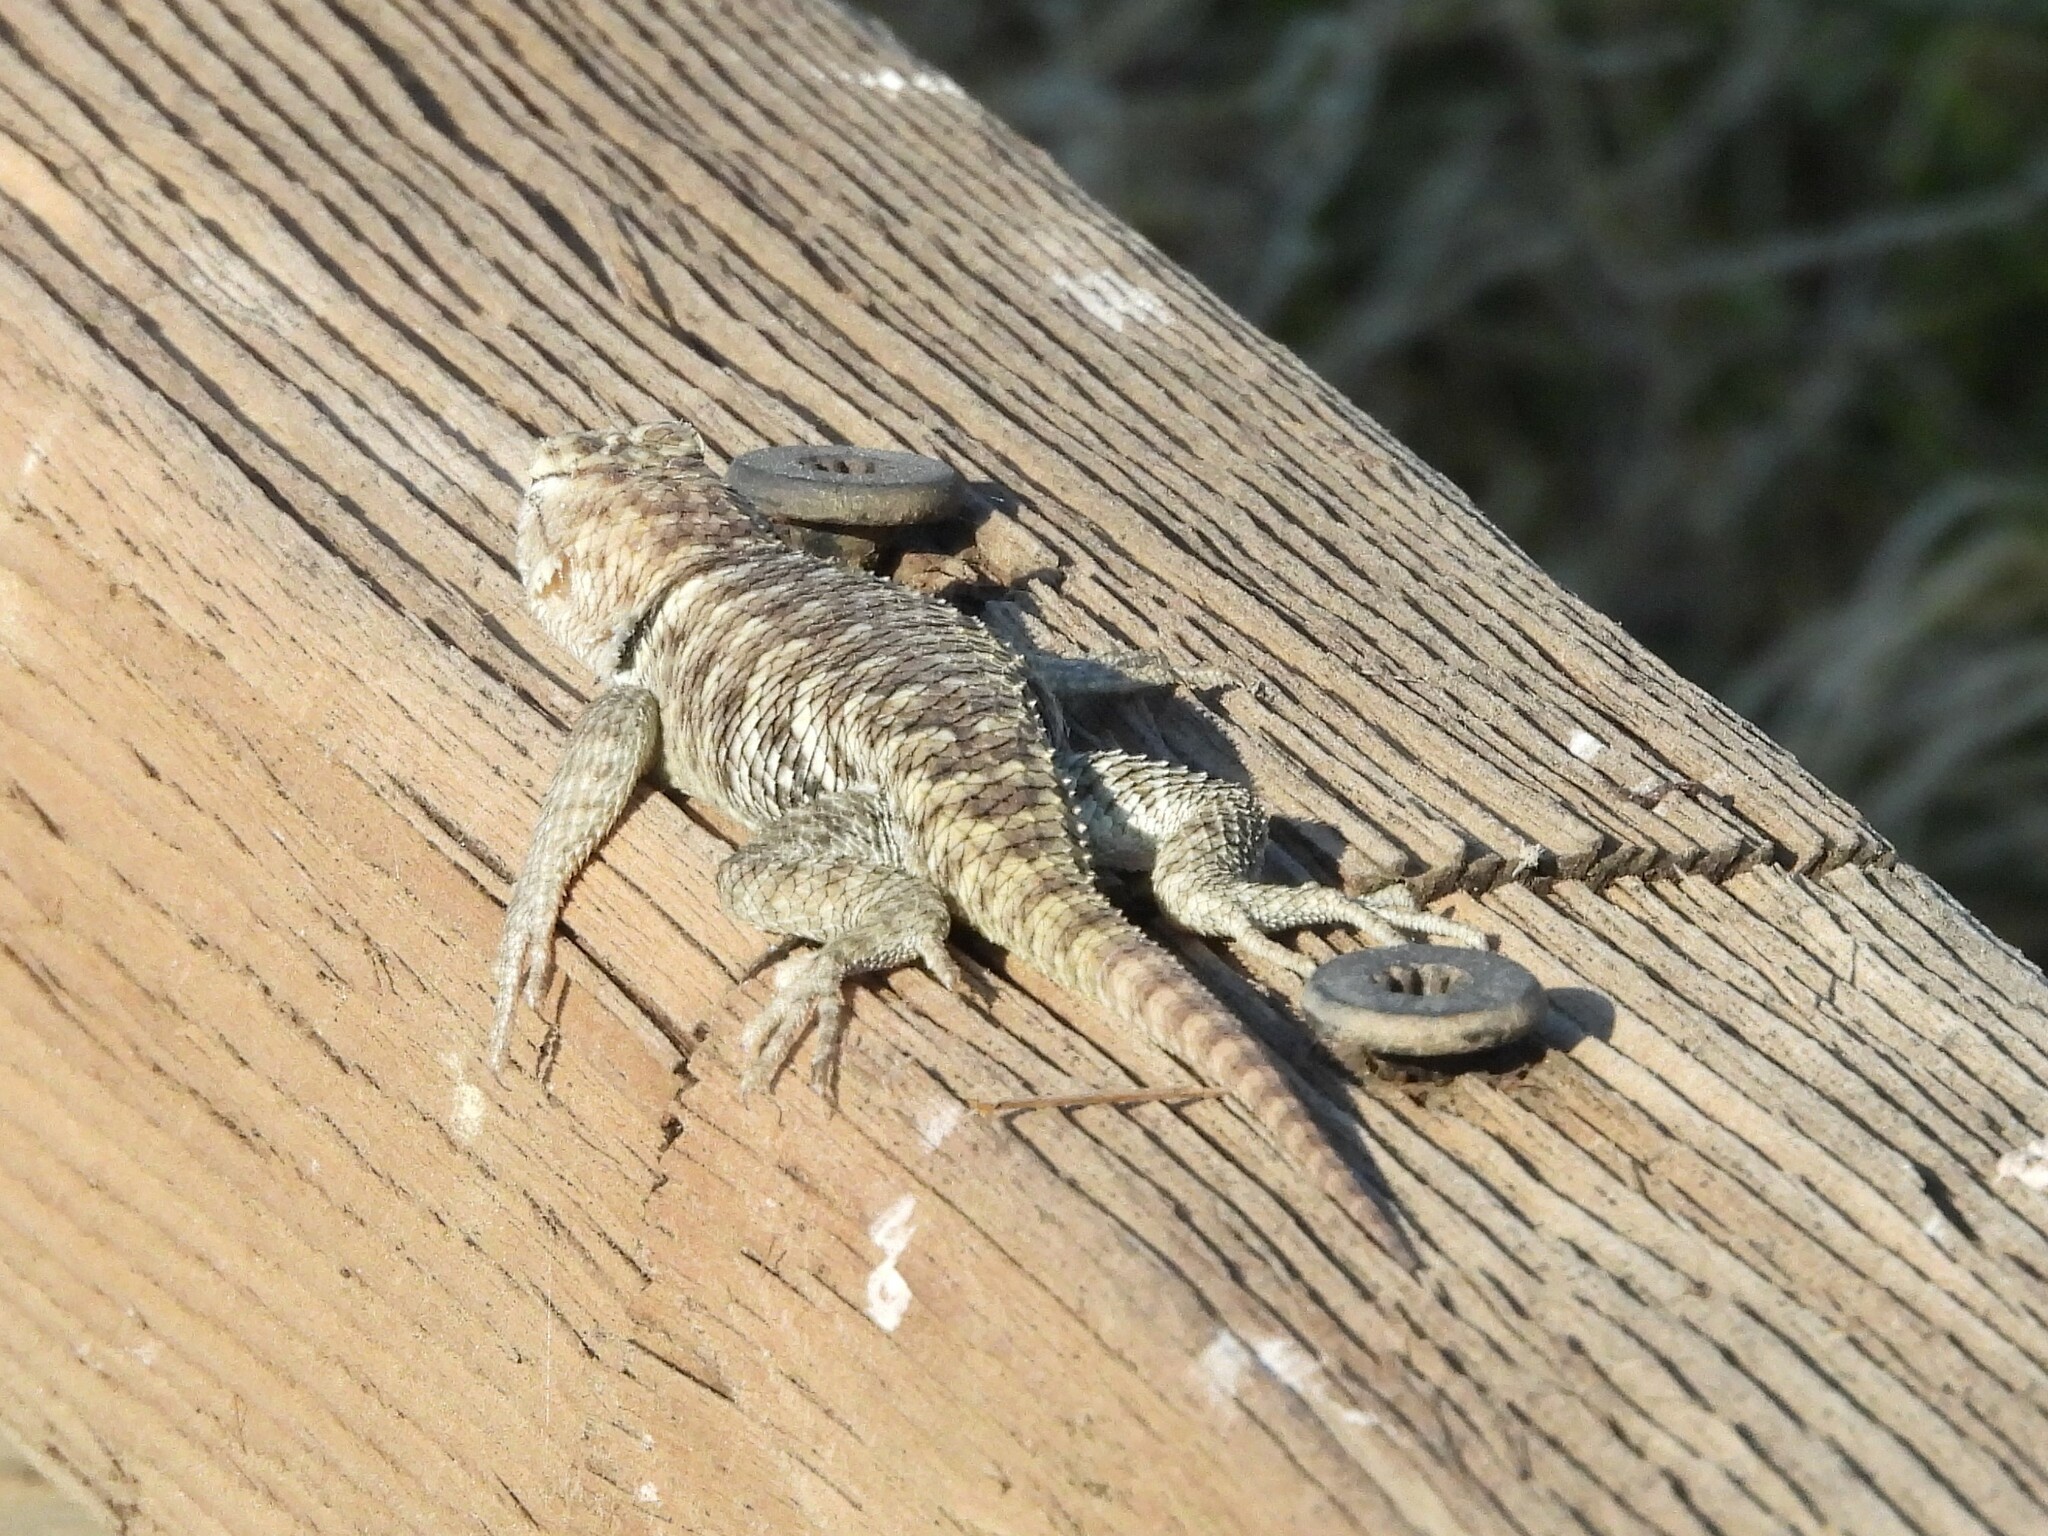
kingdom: Animalia
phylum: Chordata
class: Squamata
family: Phrynosomatidae
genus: Sceloporus
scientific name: Sceloporus uniformis
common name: Yellow-backed spiny lizard
